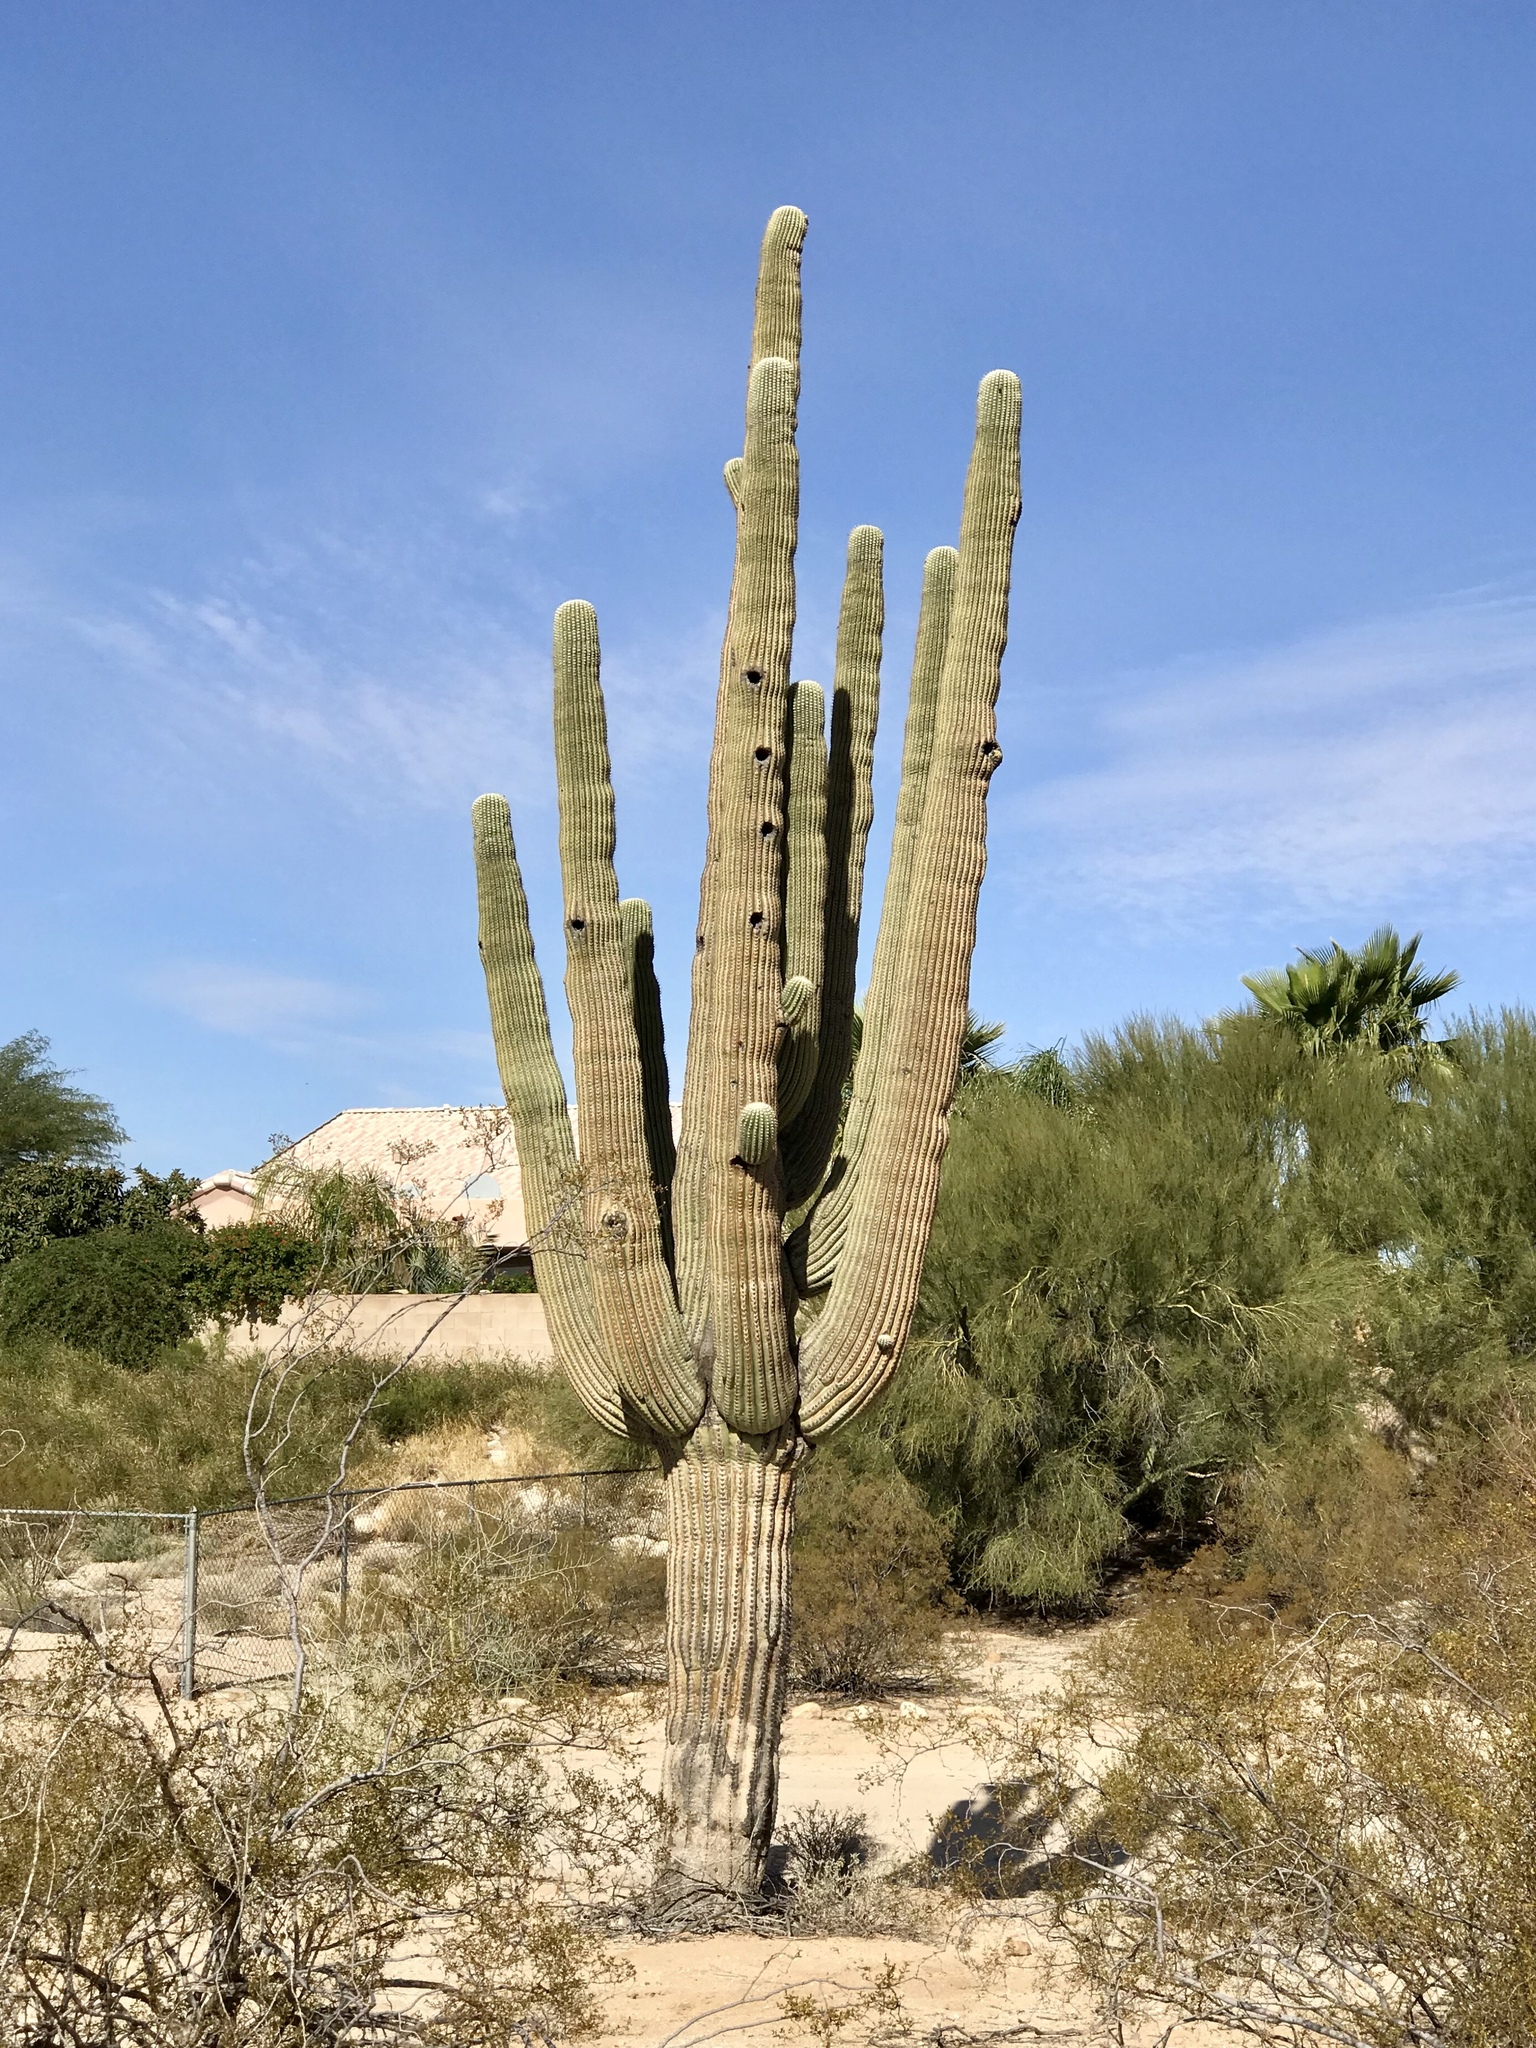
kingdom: Plantae
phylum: Tracheophyta
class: Magnoliopsida
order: Caryophyllales
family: Cactaceae
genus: Carnegiea
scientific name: Carnegiea gigantea
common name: Saguaro
